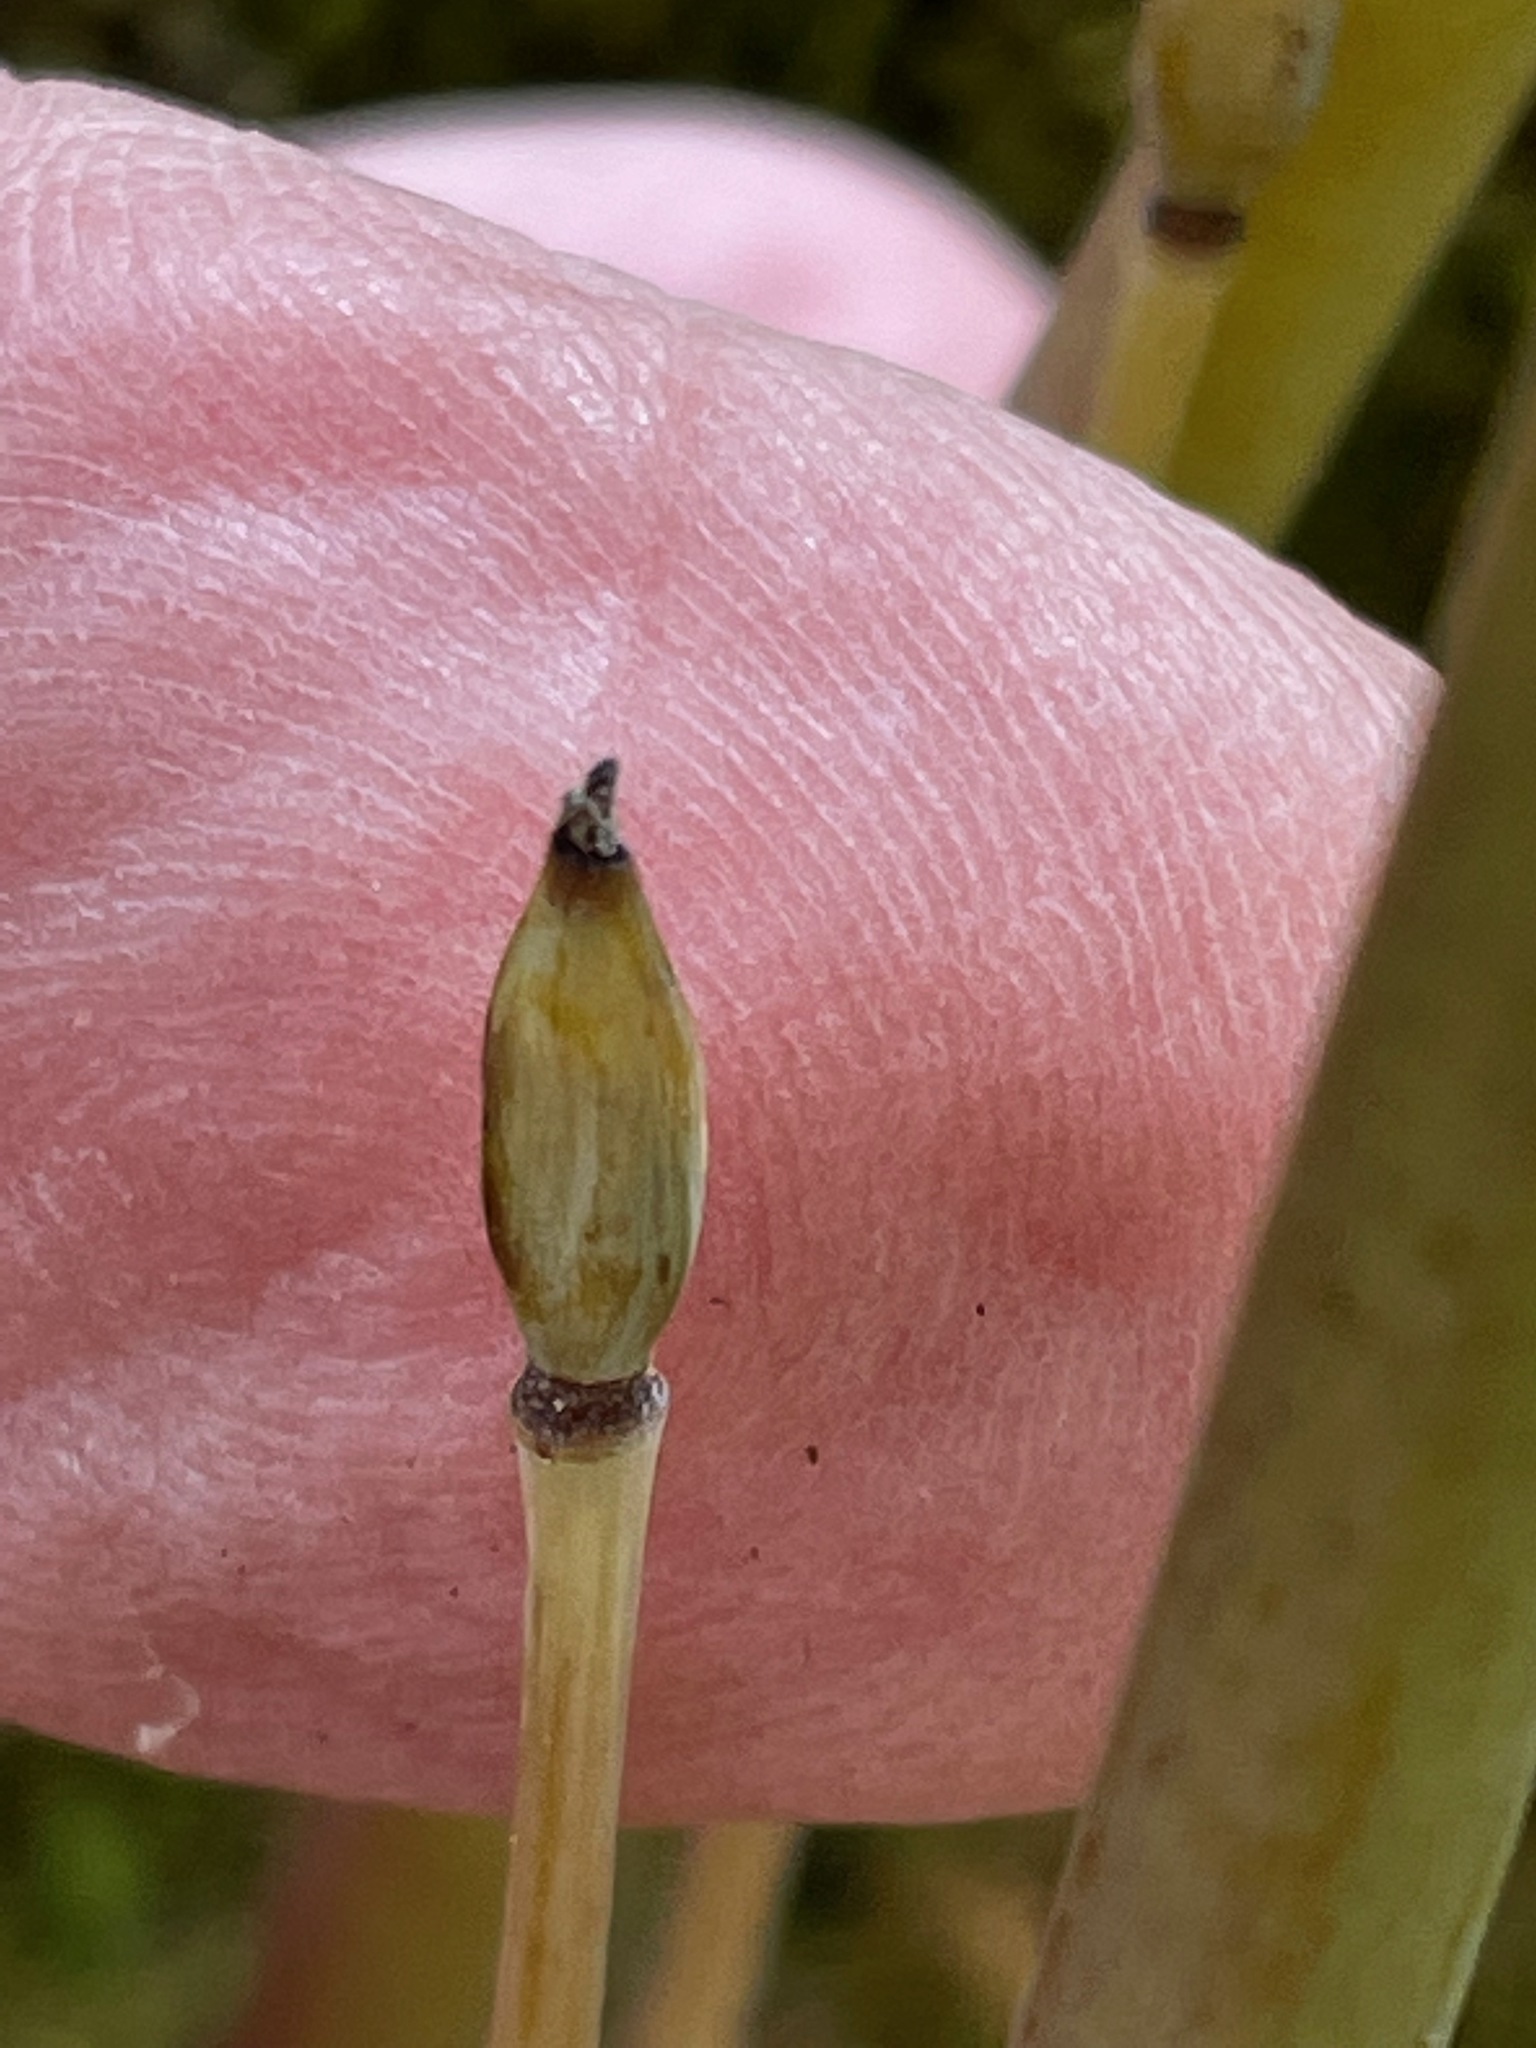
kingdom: Plantae
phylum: Tracheophyta
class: Magnoliopsida
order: Ranunculales
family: Papaveraceae
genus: Sanguinaria
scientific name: Sanguinaria canadensis
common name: Bloodroot
